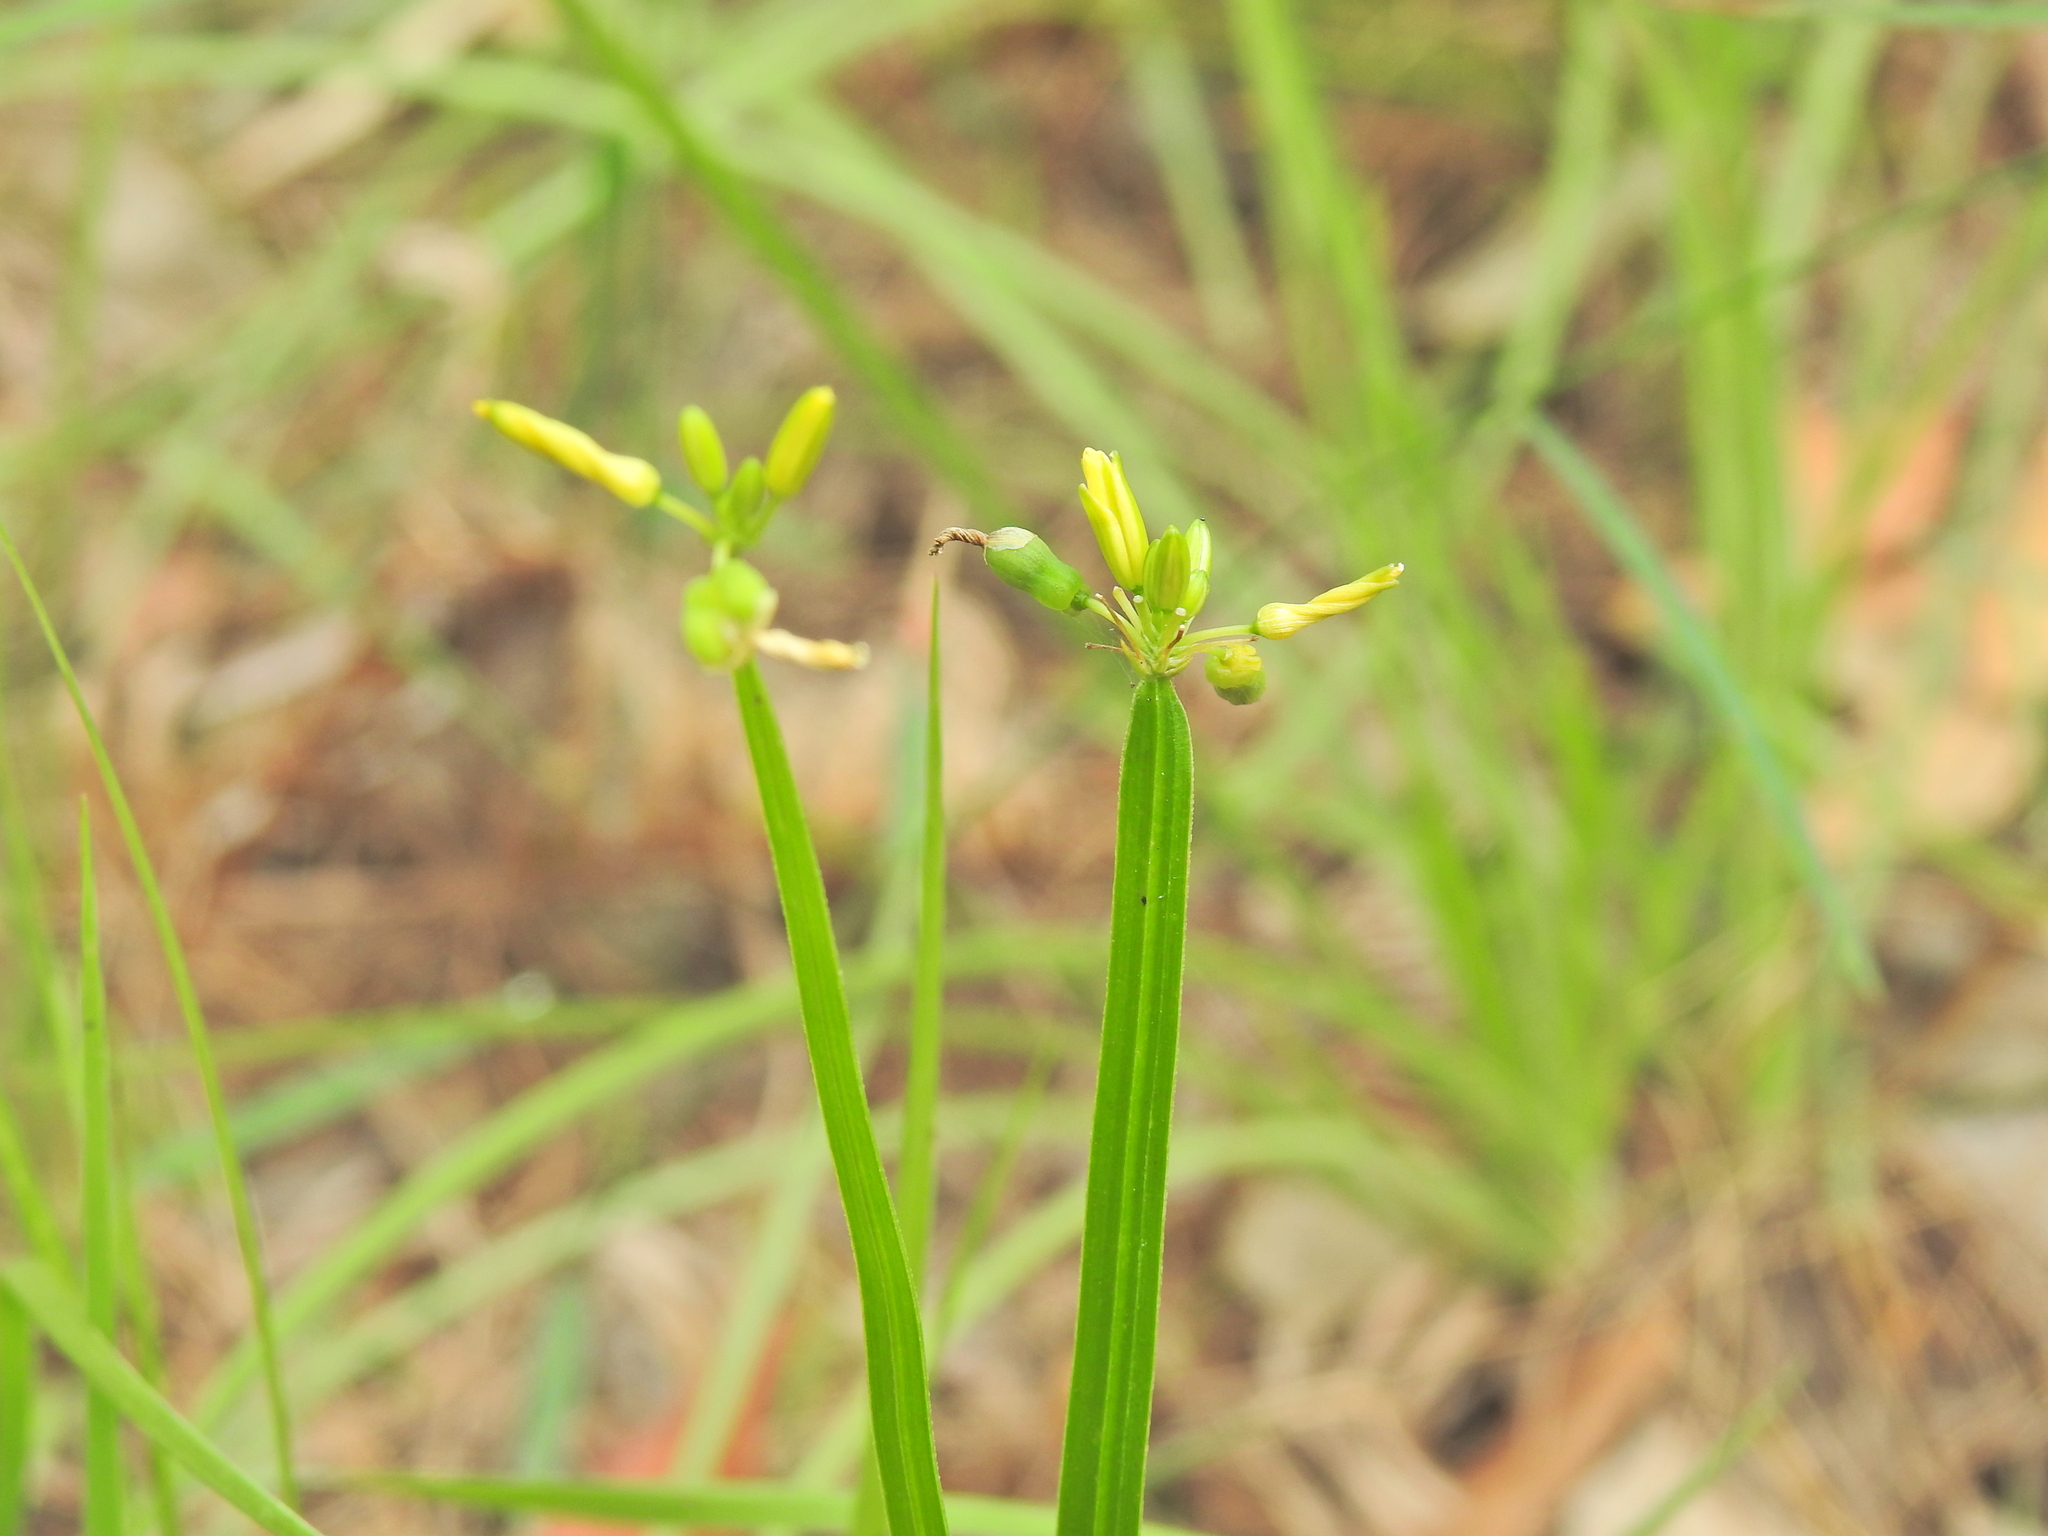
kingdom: Plantae
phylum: Tracheophyta
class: Liliopsida
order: Asparagales
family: Asphodelaceae
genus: Tricoryne
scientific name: Tricoryne anceps
